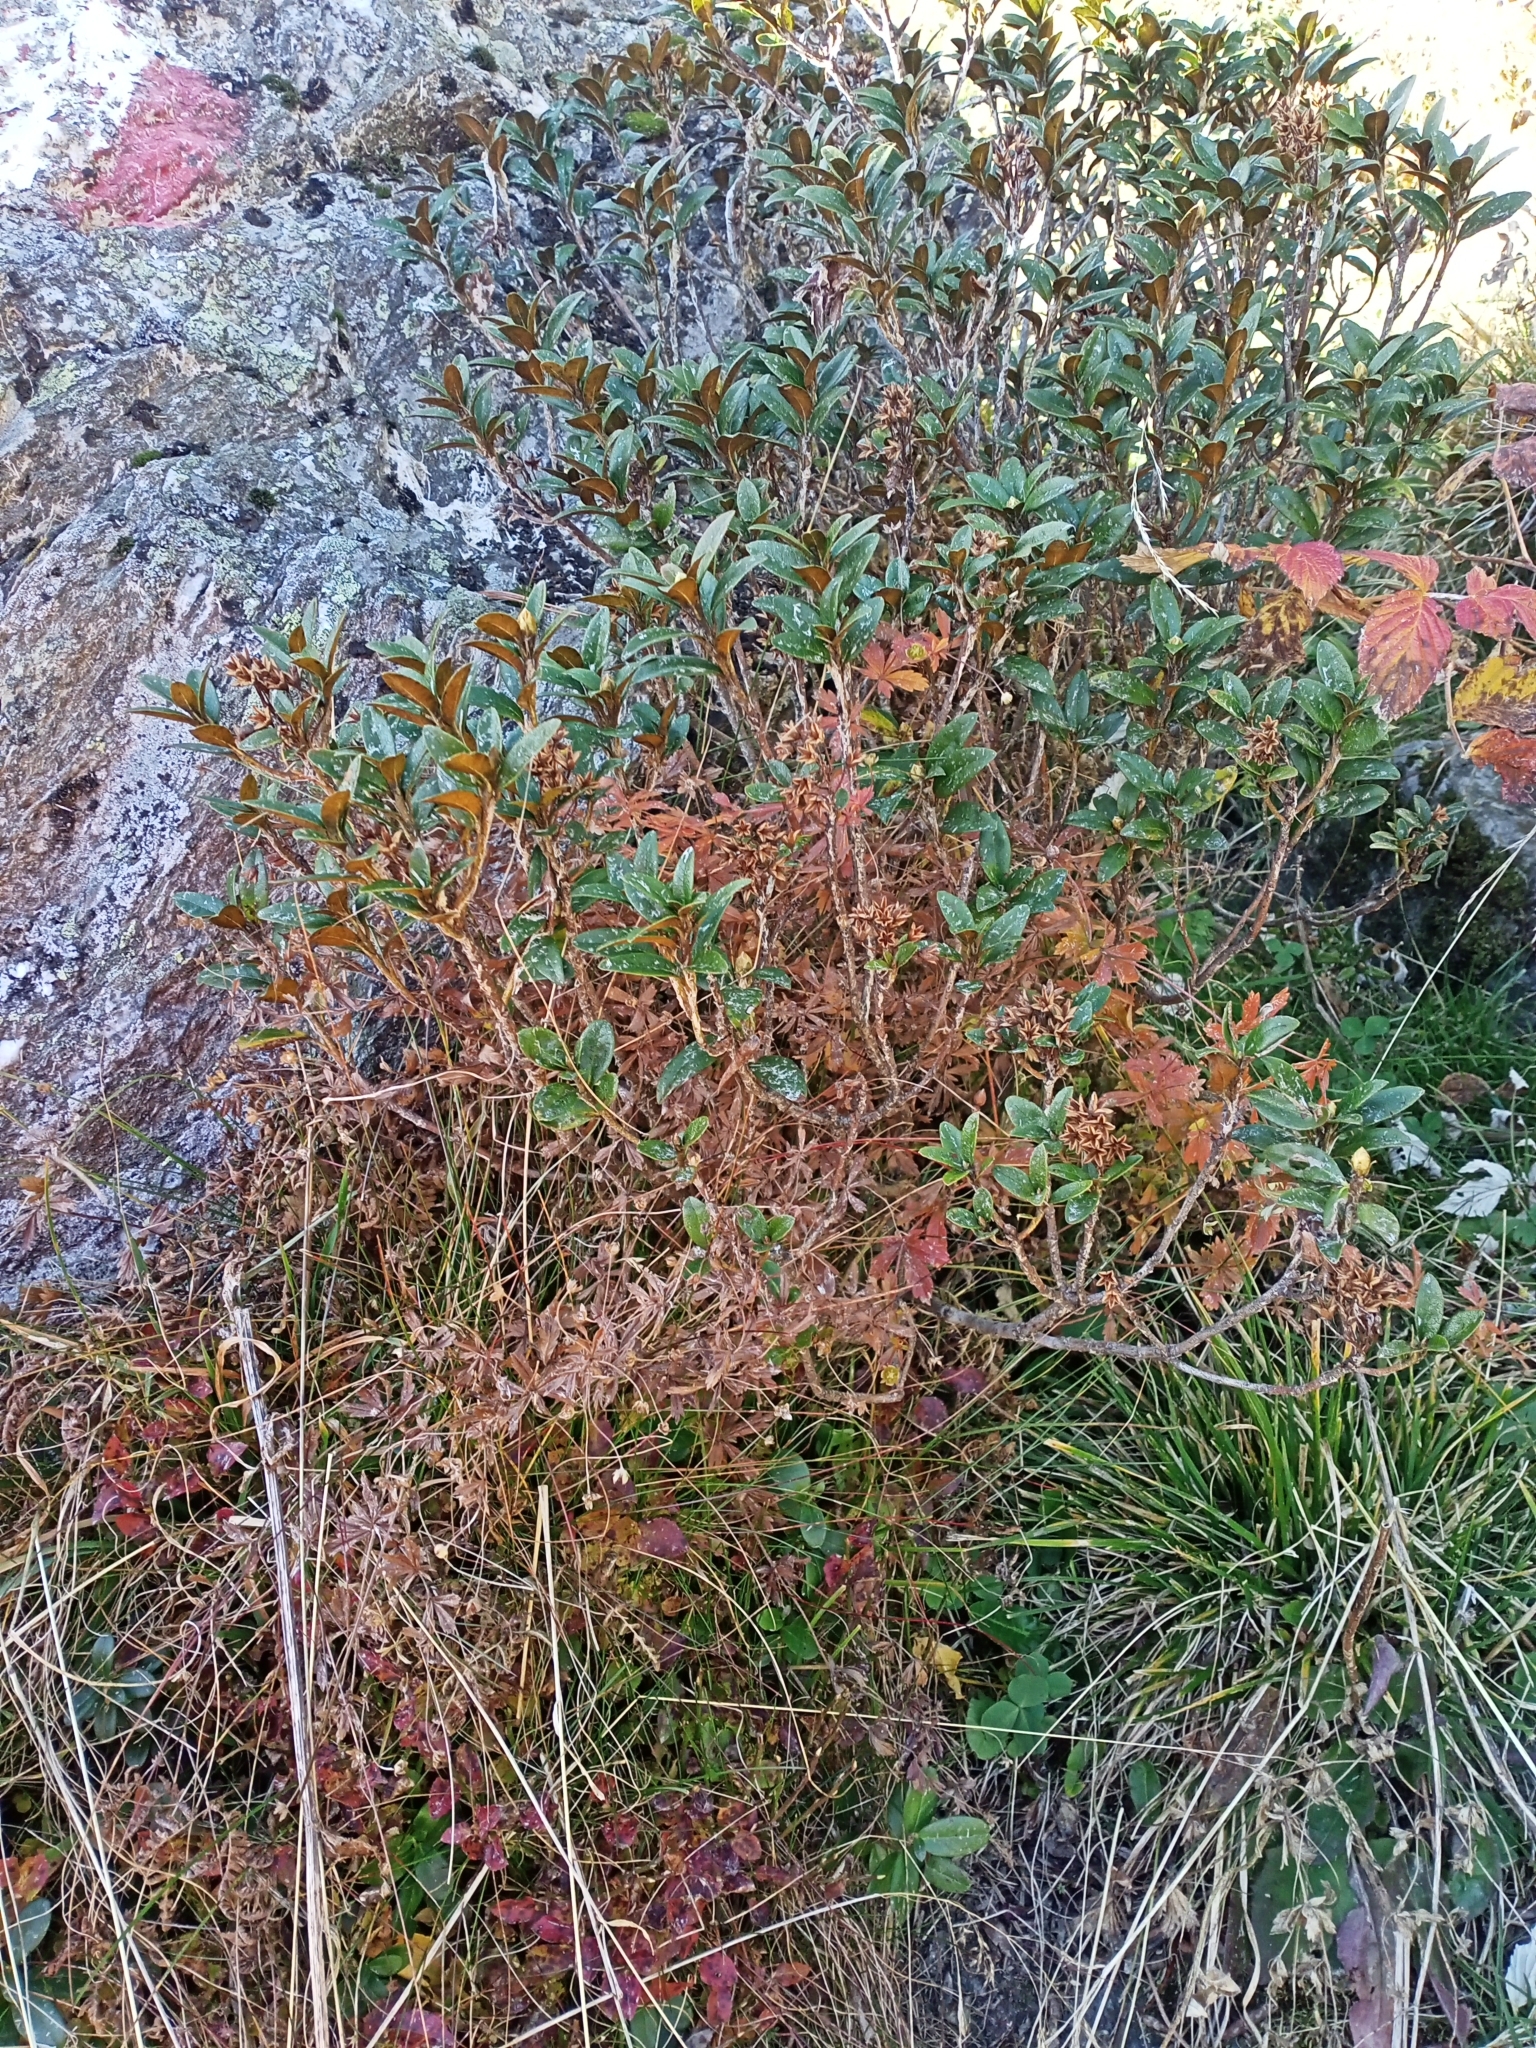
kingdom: Plantae
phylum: Tracheophyta
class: Magnoliopsida
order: Ericales
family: Ericaceae
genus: Rhododendron
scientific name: Rhododendron ferrugineum
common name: Alpenrose
